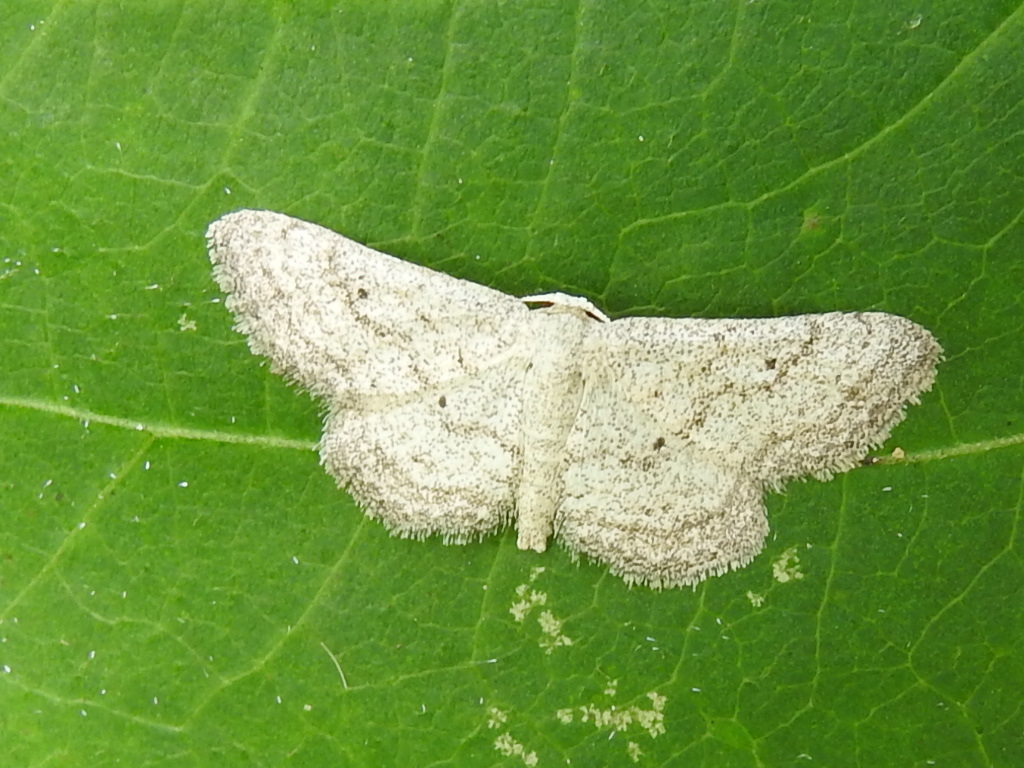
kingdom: Animalia
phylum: Arthropoda
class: Insecta
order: Lepidoptera
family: Geometridae
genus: Lobocleta
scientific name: Lobocleta ossularia
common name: Drab brown wave
